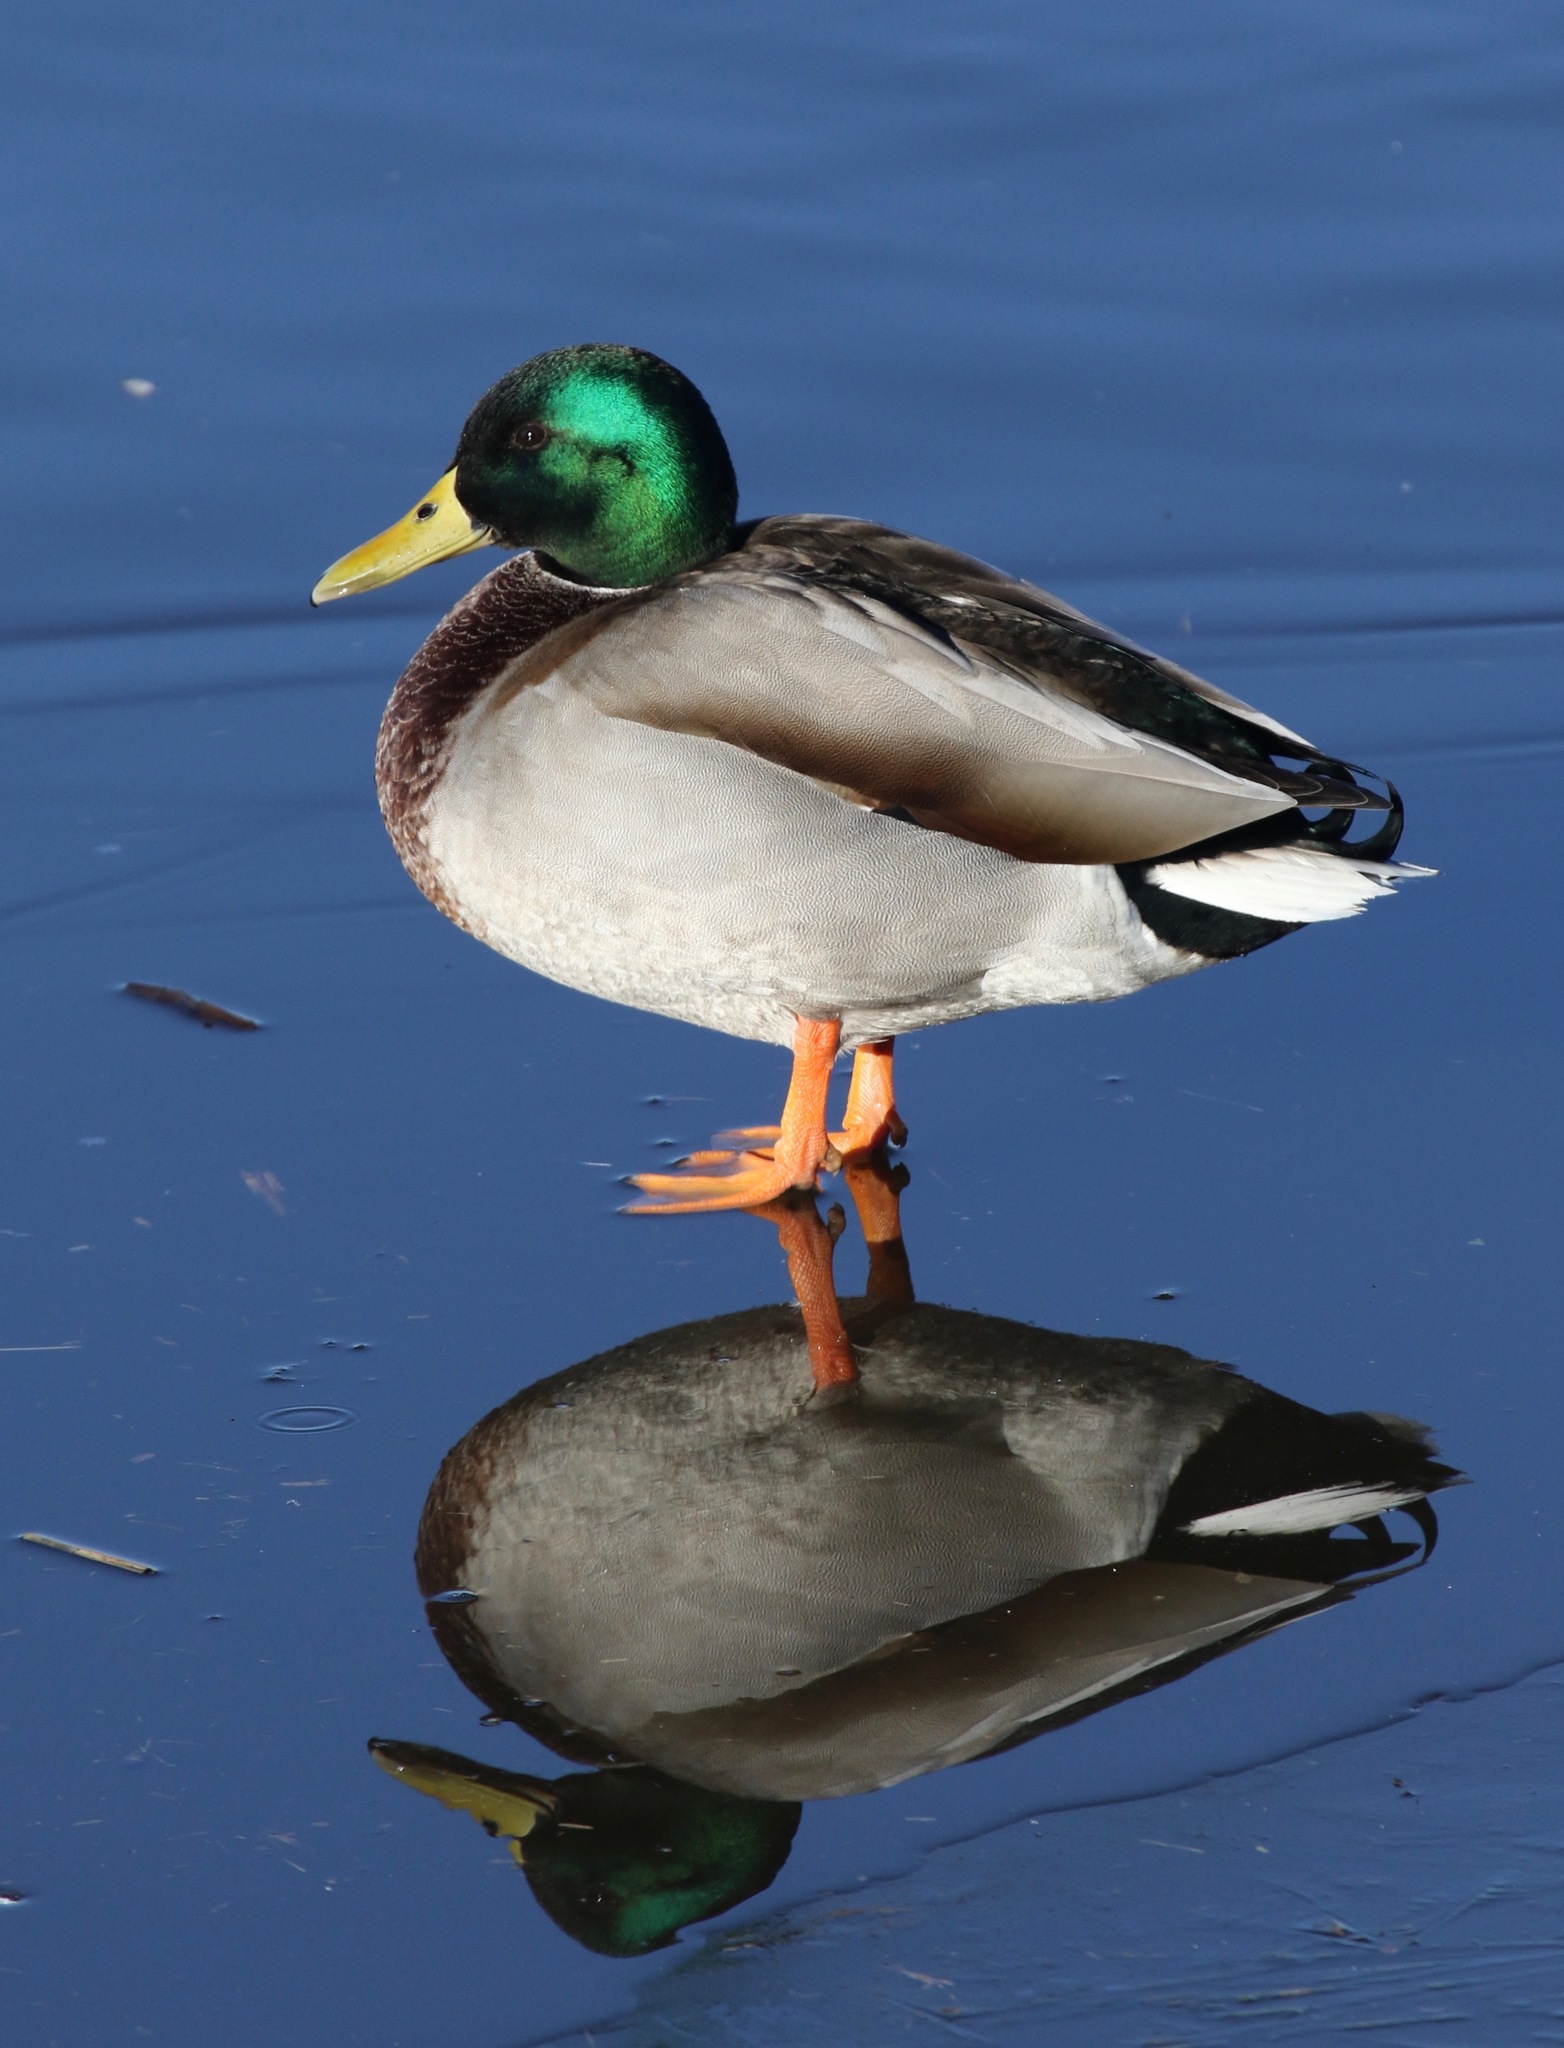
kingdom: Animalia
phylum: Chordata
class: Aves
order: Anseriformes
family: Anatidae
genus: Anas
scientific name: Anas platyrhynchos
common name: Mallard
